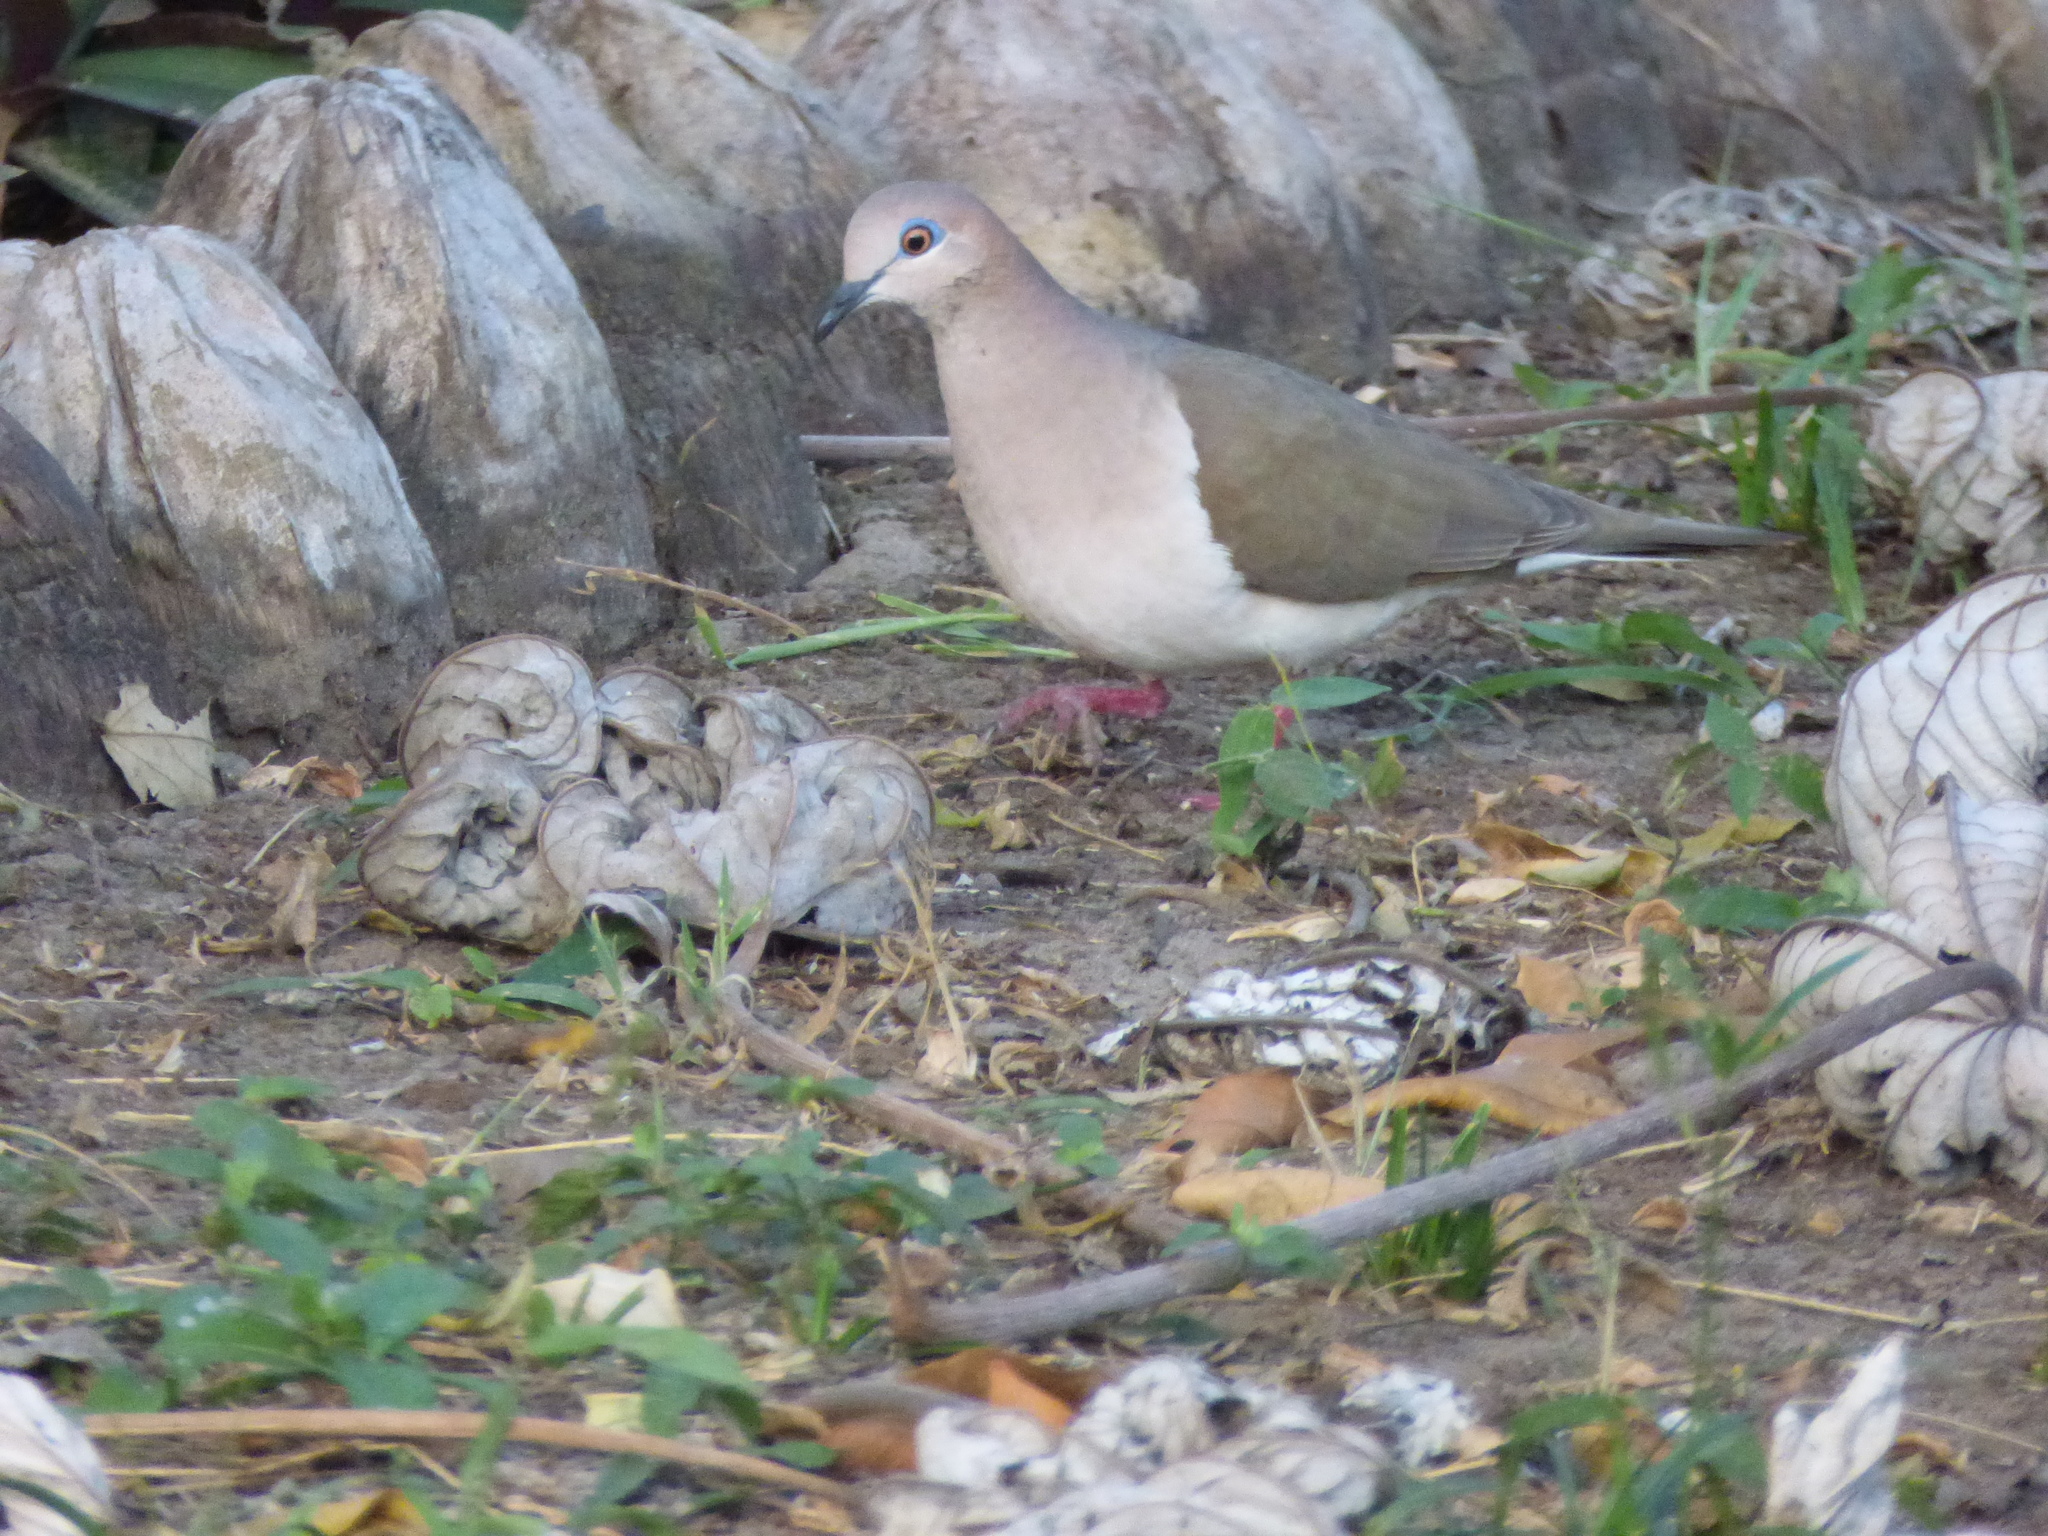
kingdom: Animalia
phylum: Chordata
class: Aves
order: Columbiformes
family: Columbidae
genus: Leptotila
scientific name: Leptotila verreauxi
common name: White-tipped dove
